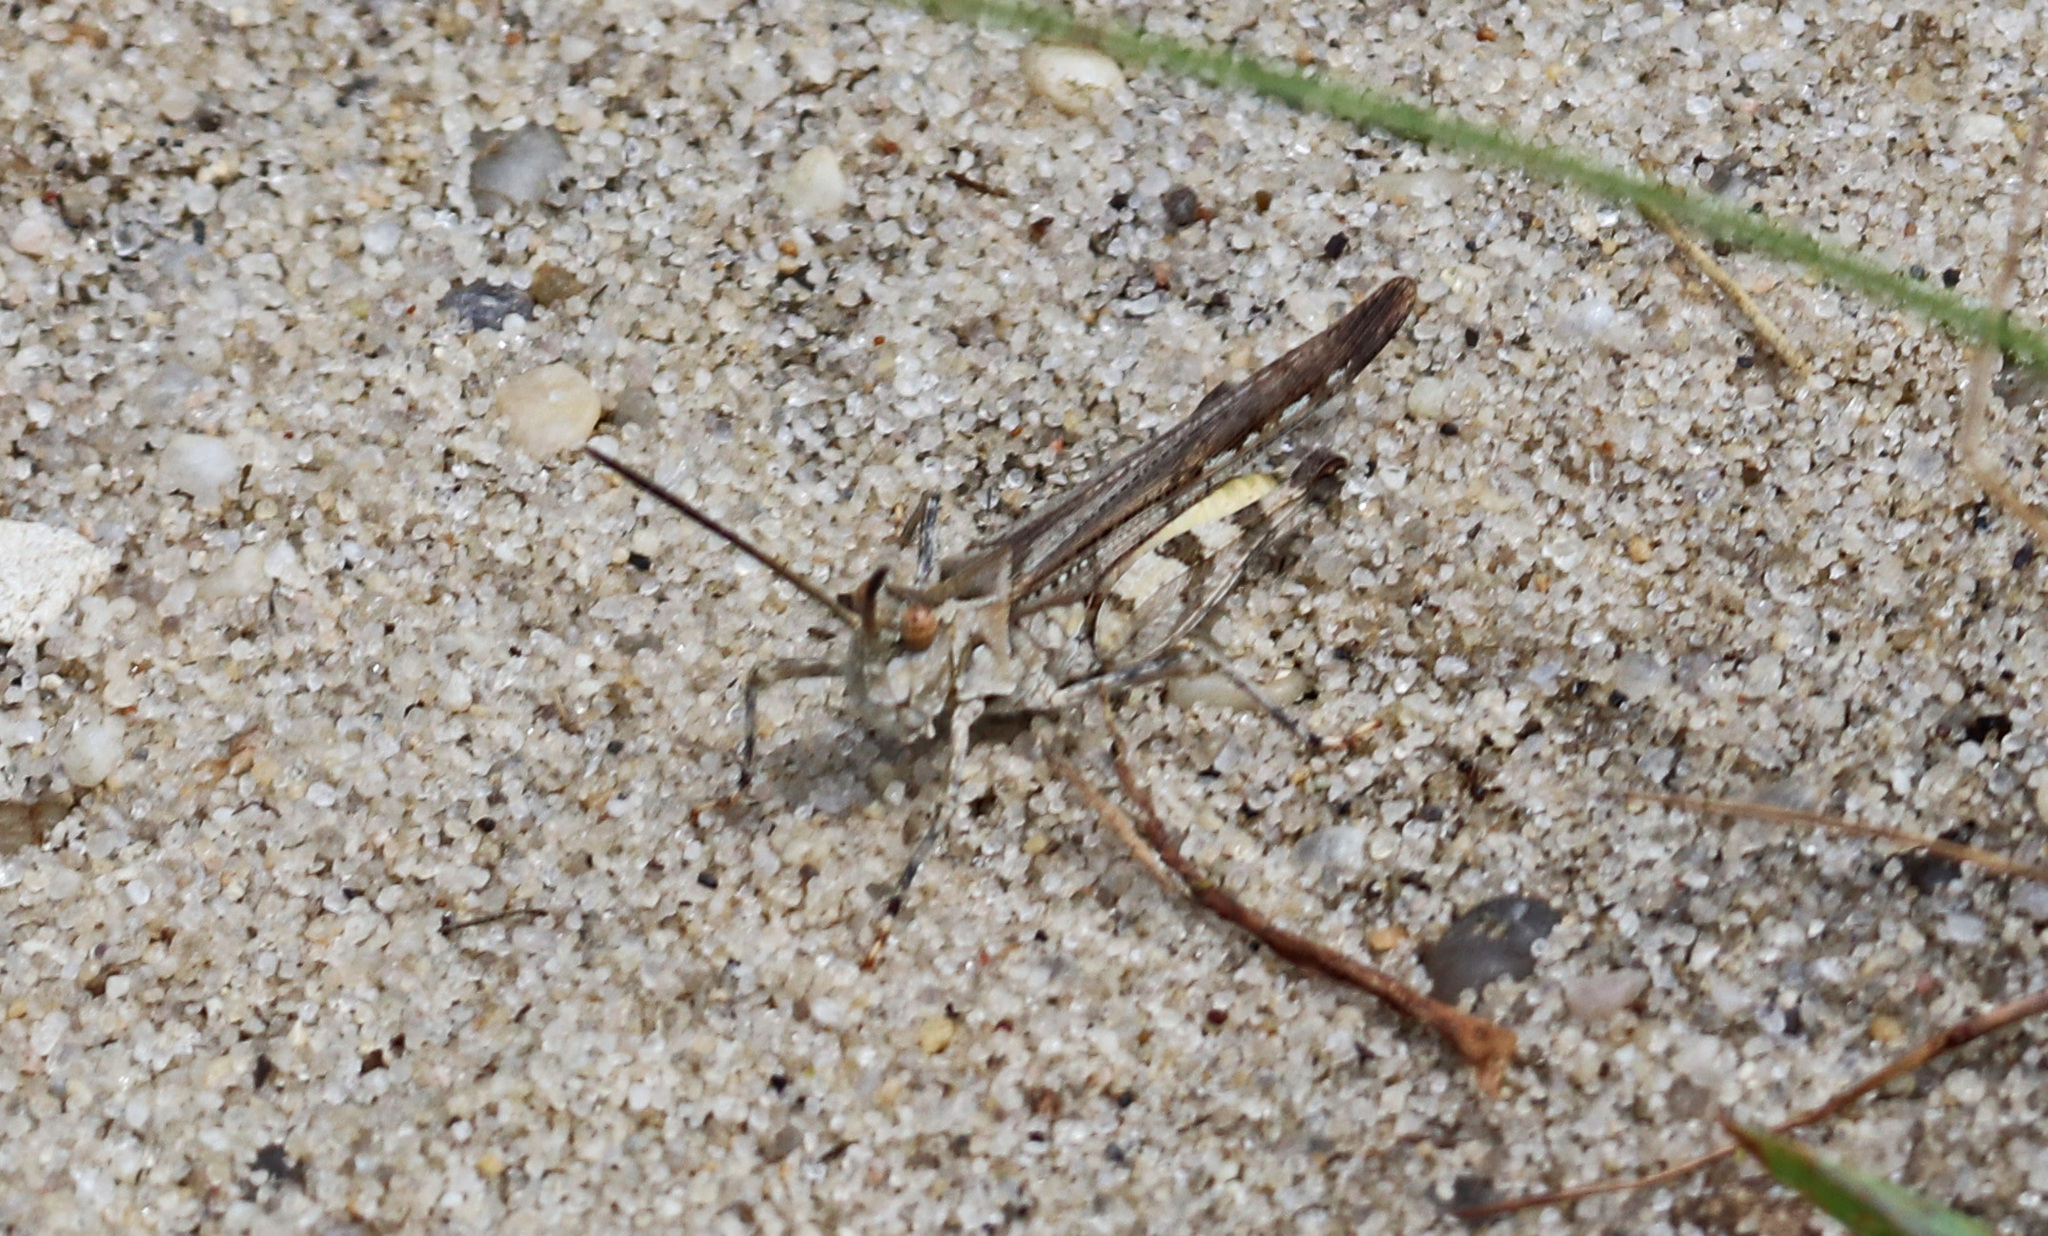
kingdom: Animalia
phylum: Arthropoda
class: Insecta
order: Orthoptera
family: Acrididae
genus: Psinidia
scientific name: Psinidia fenestralis
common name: Long-horned locust
